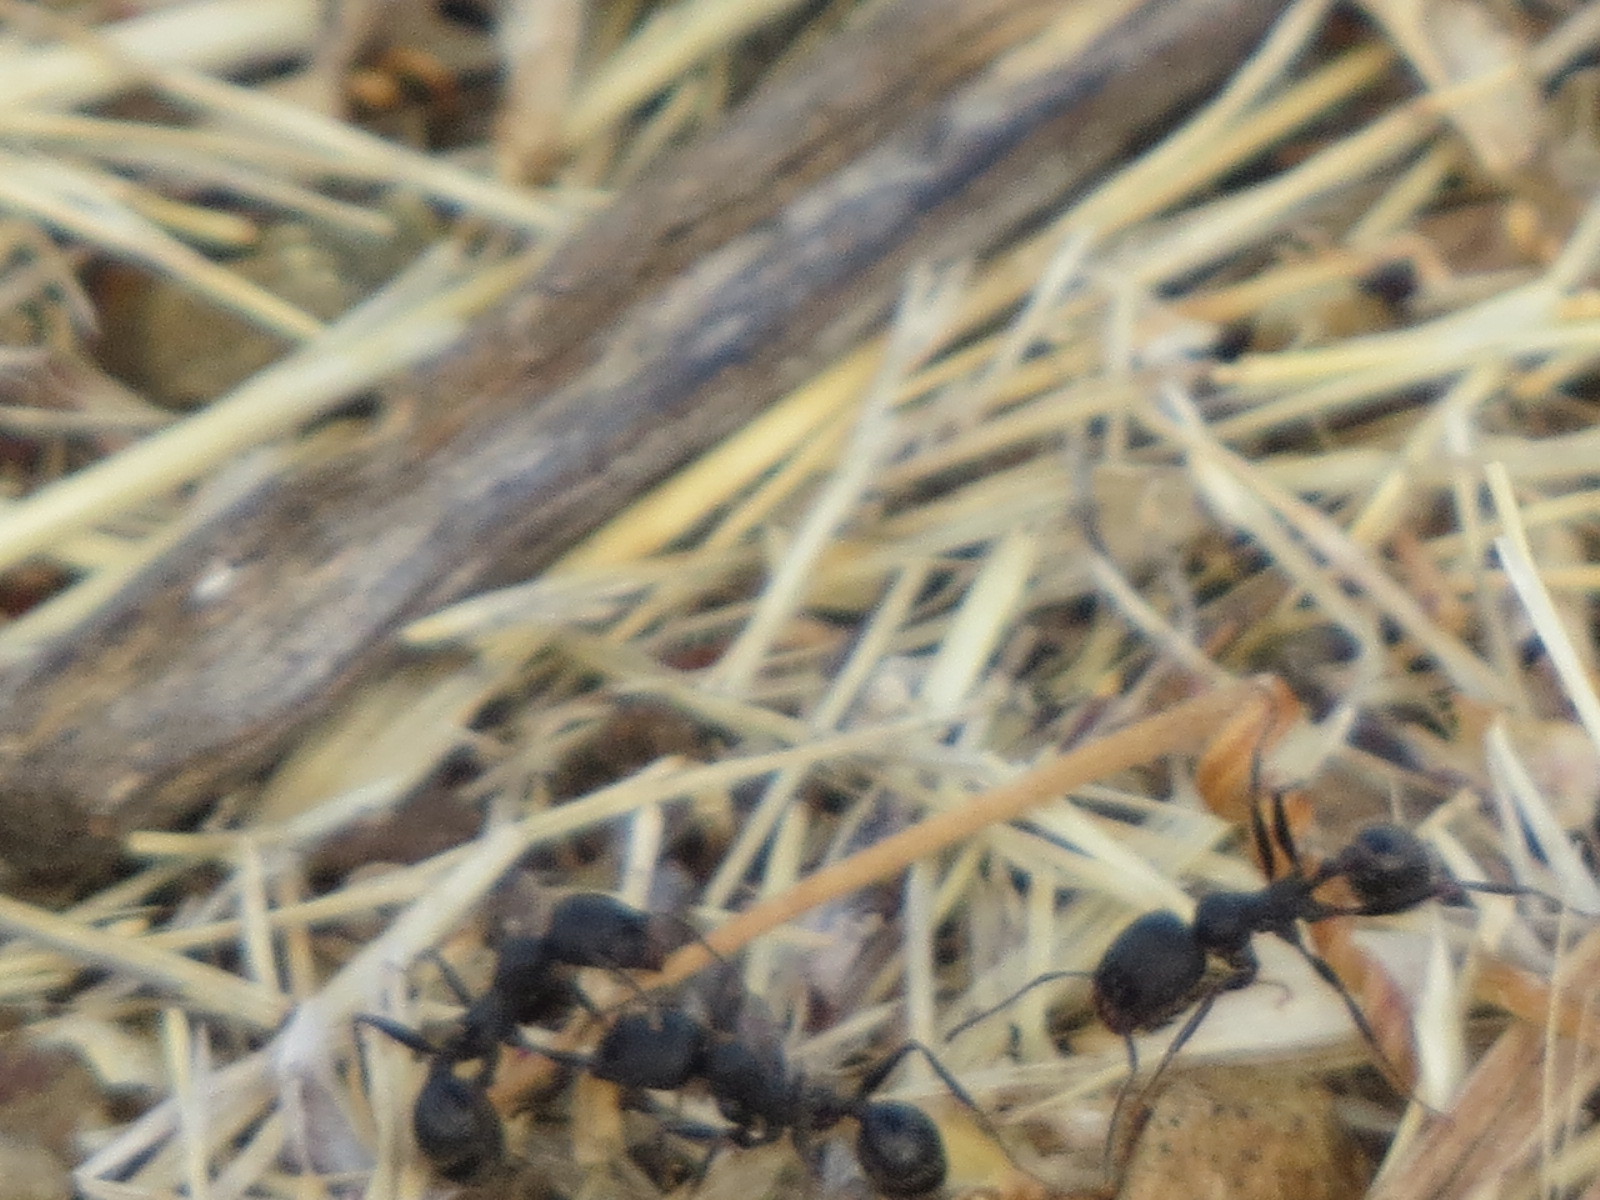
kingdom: Animalia
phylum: Arthropoda
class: Insecta
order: Hymenoptera
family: Formicidae
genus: Veromessor
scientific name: Veromessor andrei
